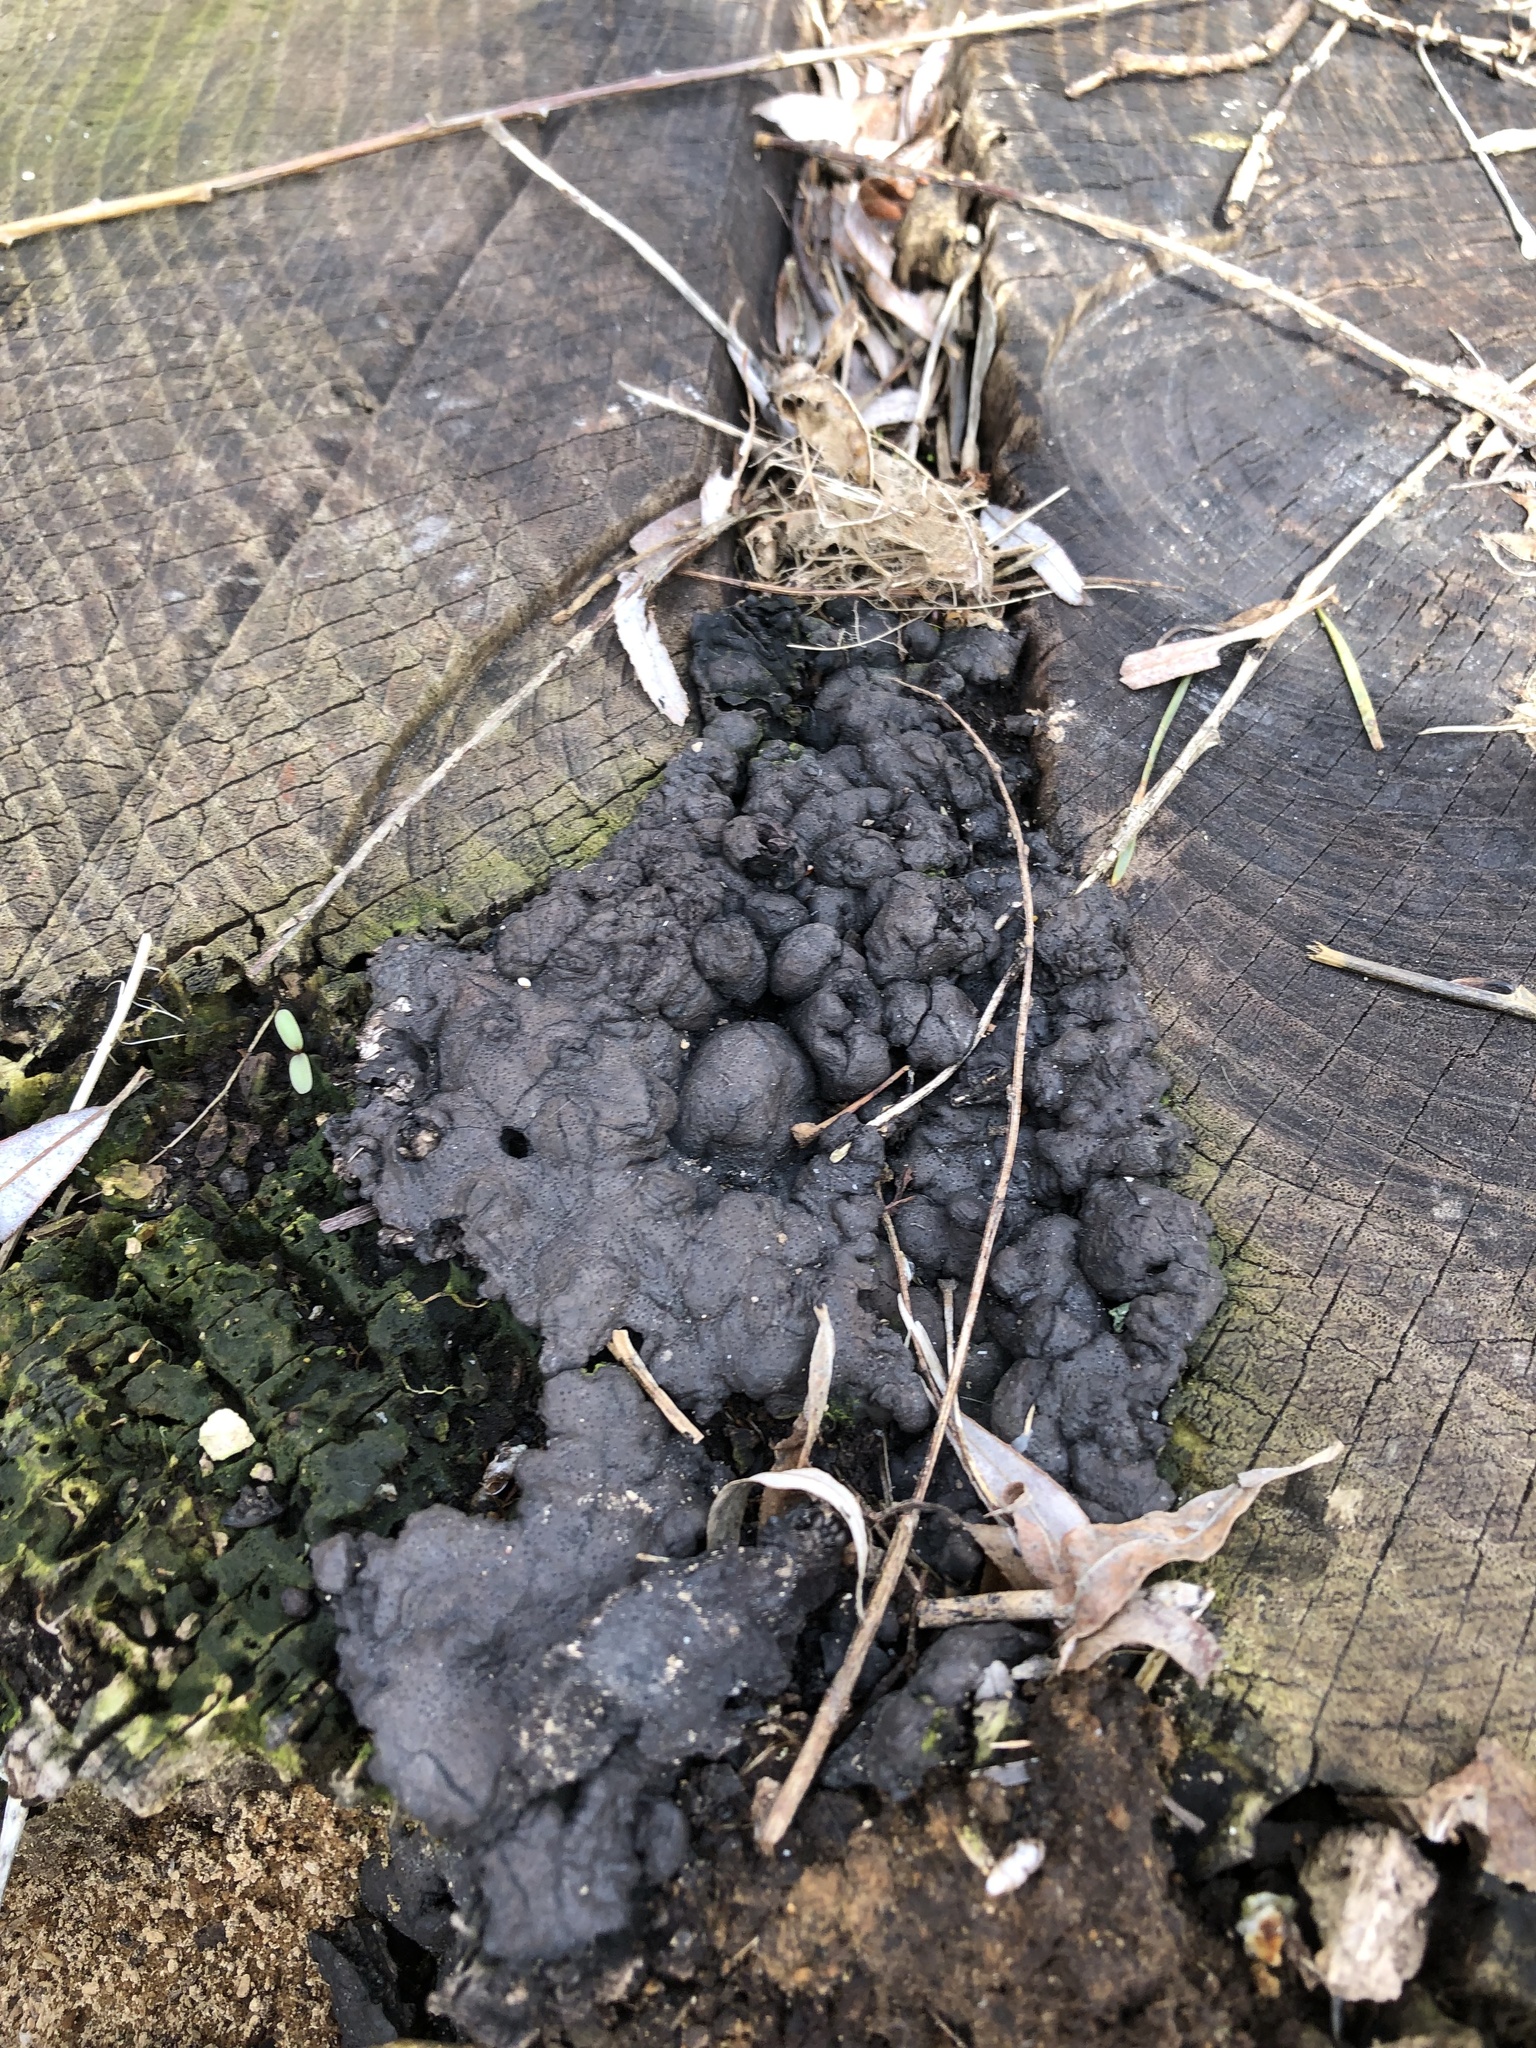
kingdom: Fungi
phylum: Ascomycota
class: Sordariomycetes
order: Xylariales
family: Xylariaceae
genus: Kretzschmaria
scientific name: Kretzschmaria deusta
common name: Brittle cinder
